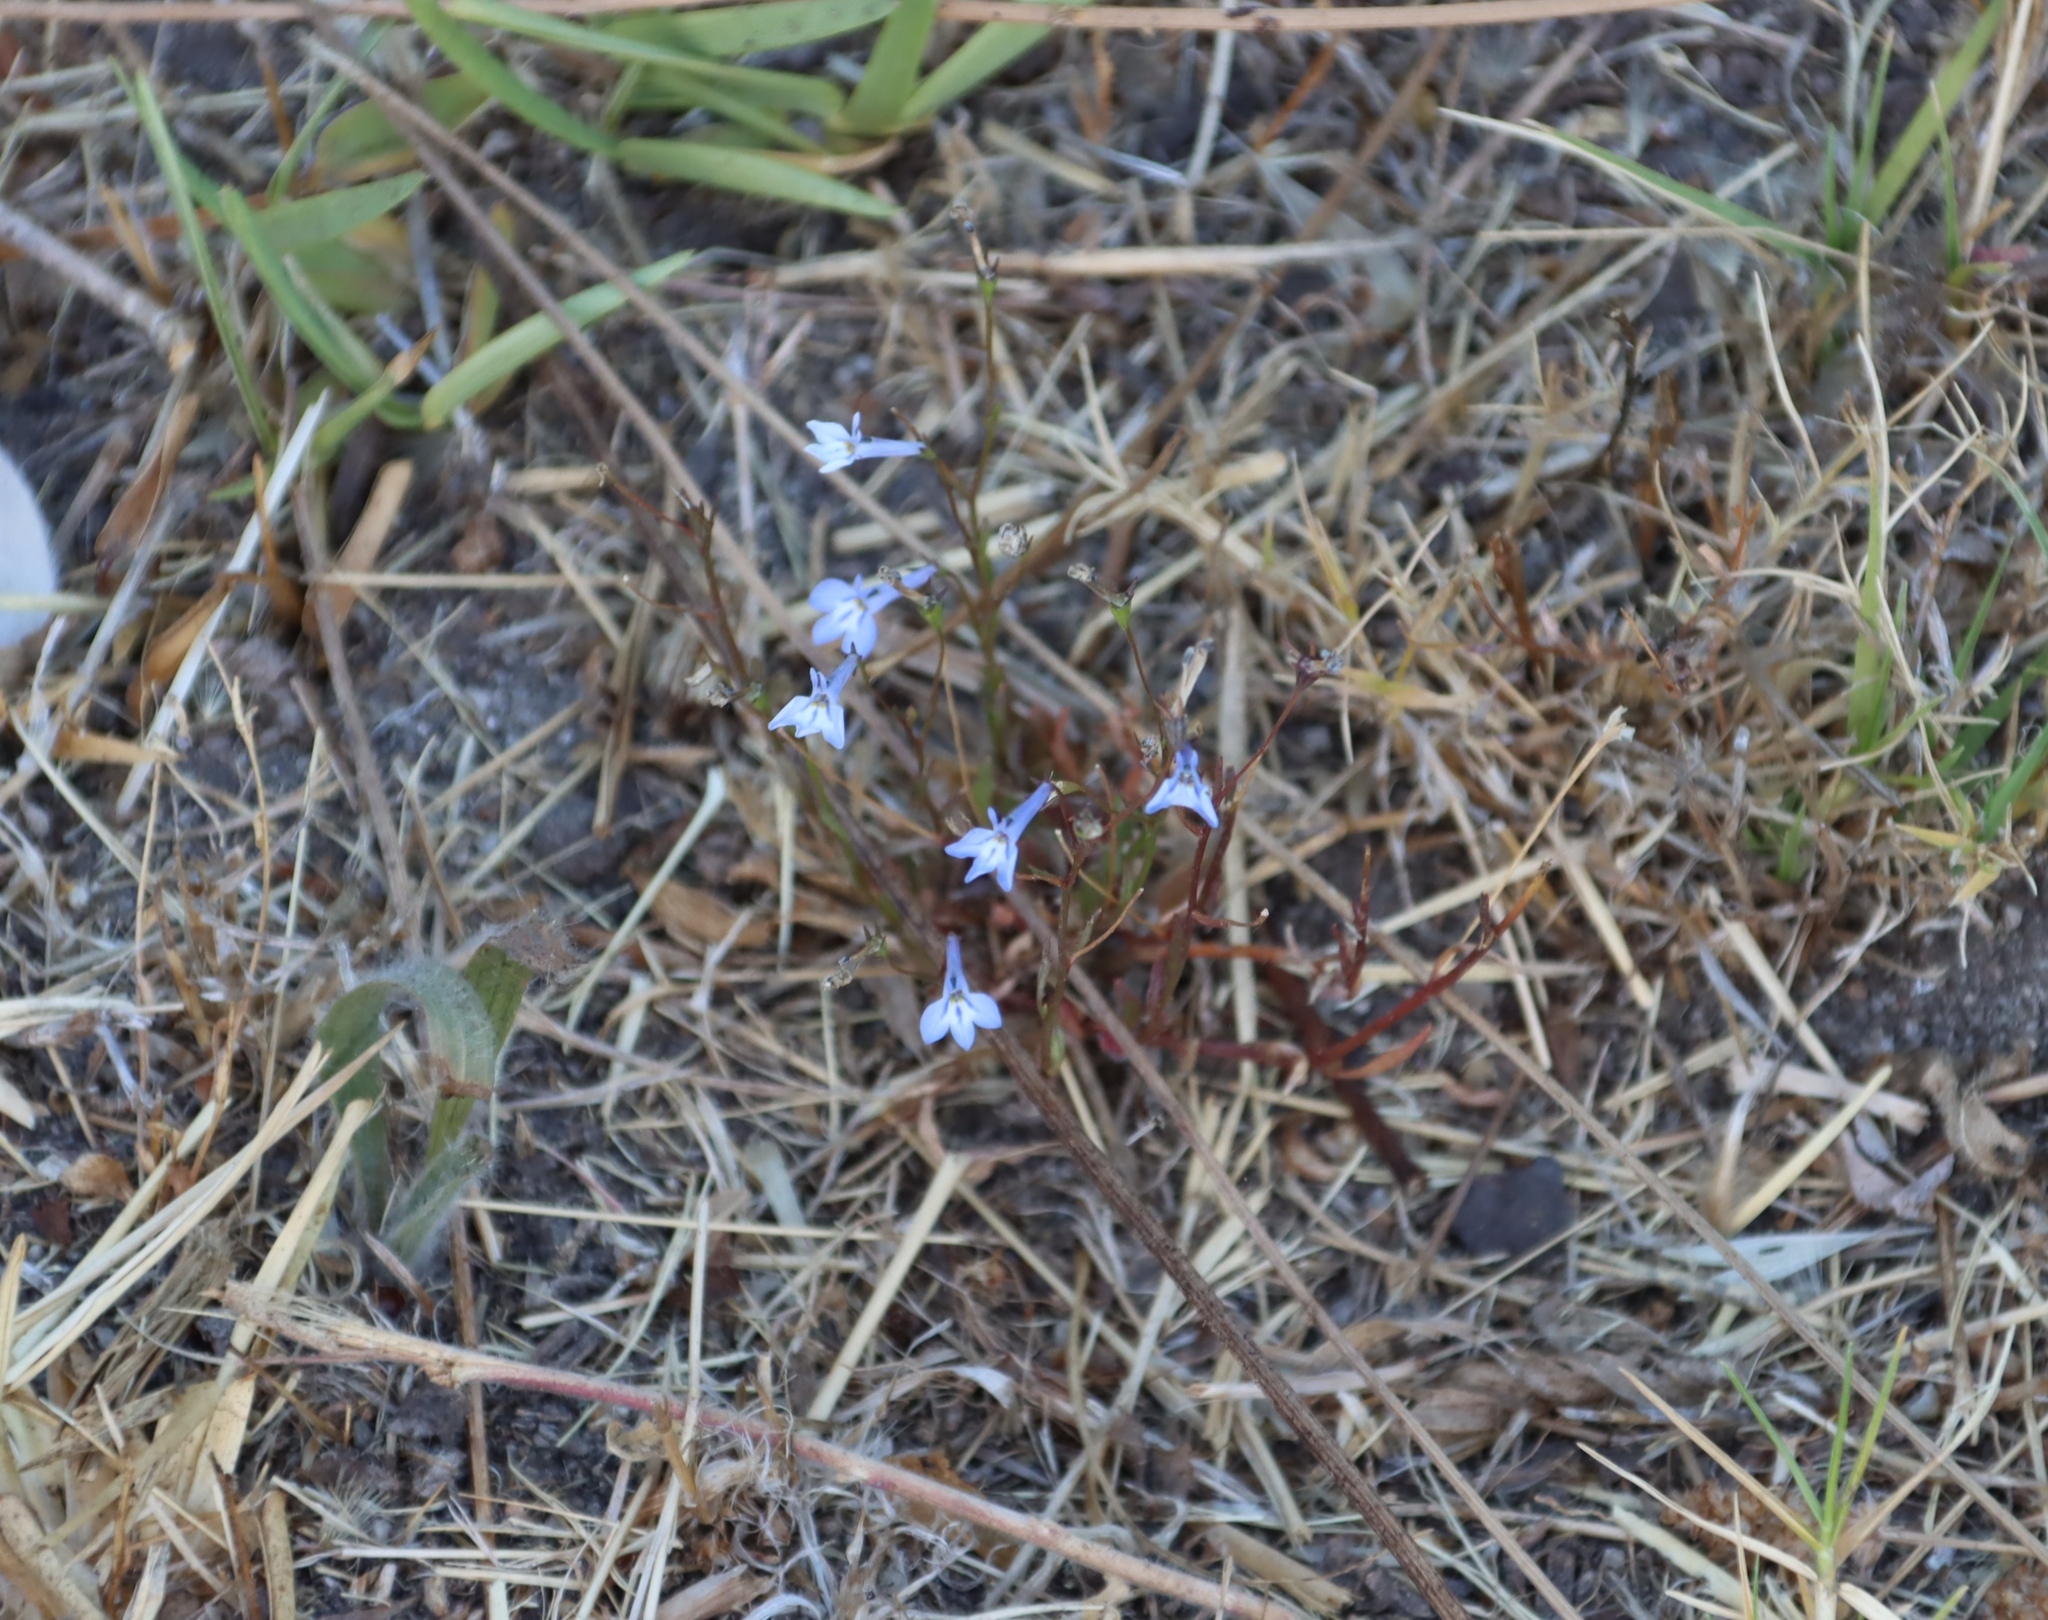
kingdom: Plantae
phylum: Tracheophyta
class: Magnoliopsida
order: Asterales
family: Campanulaceae
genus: Lobelia
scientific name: Lobelia erinus
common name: Edging lobelia
